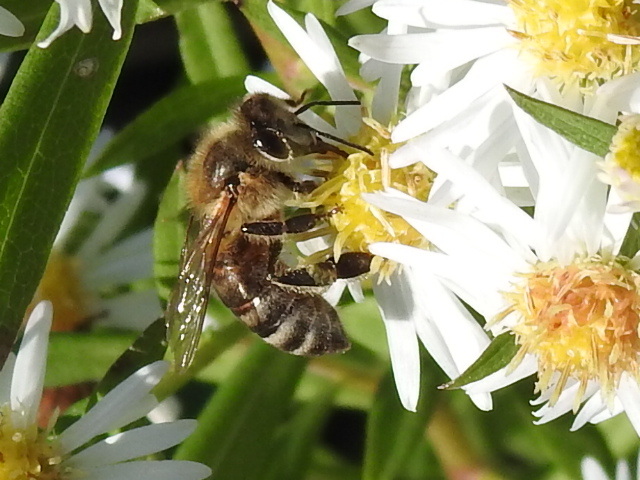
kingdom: Animalia
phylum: Arthropoda
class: Insecta
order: Hymenoptera
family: Apidae
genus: Apis
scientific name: Apis mellifera
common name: Honey bee
